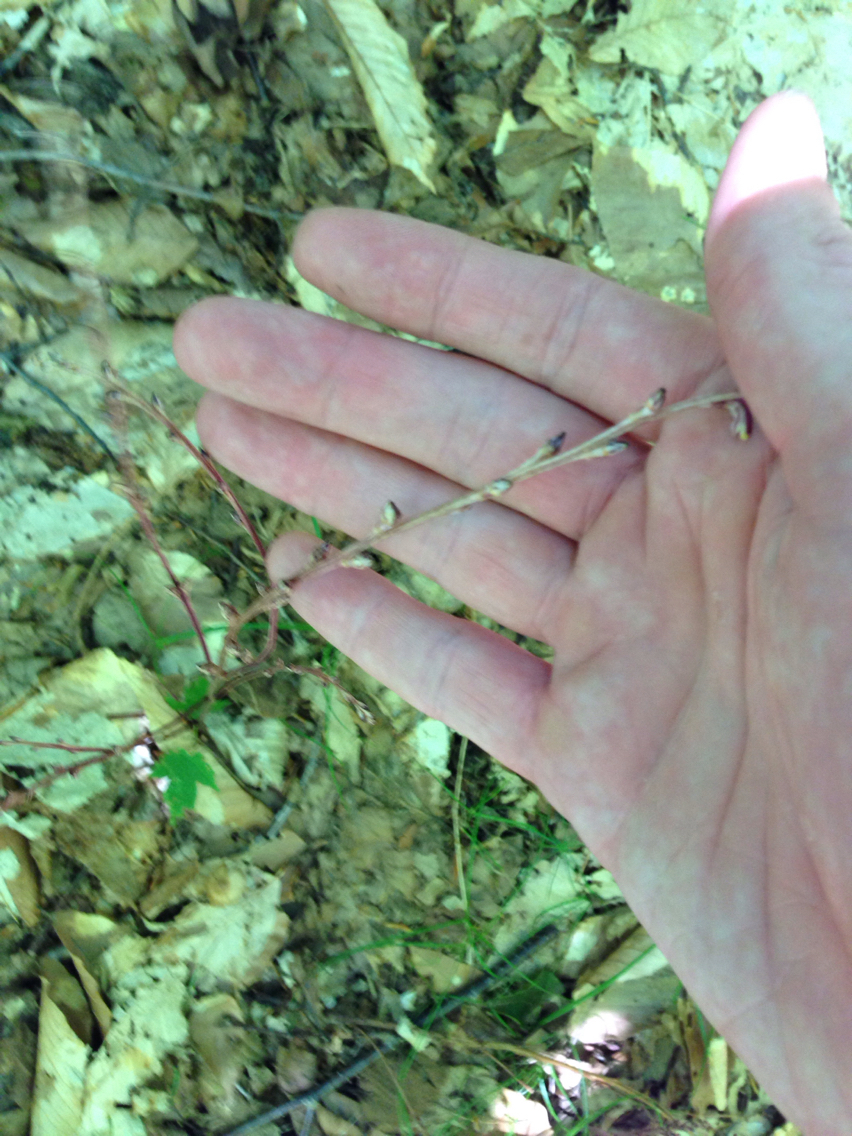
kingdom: Plantae
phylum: Tracheophyta
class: Magnoliopsida
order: Lamiales
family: Orobanchaceae
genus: Epifagus
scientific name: Epifagus virginiana
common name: Beechdrops
